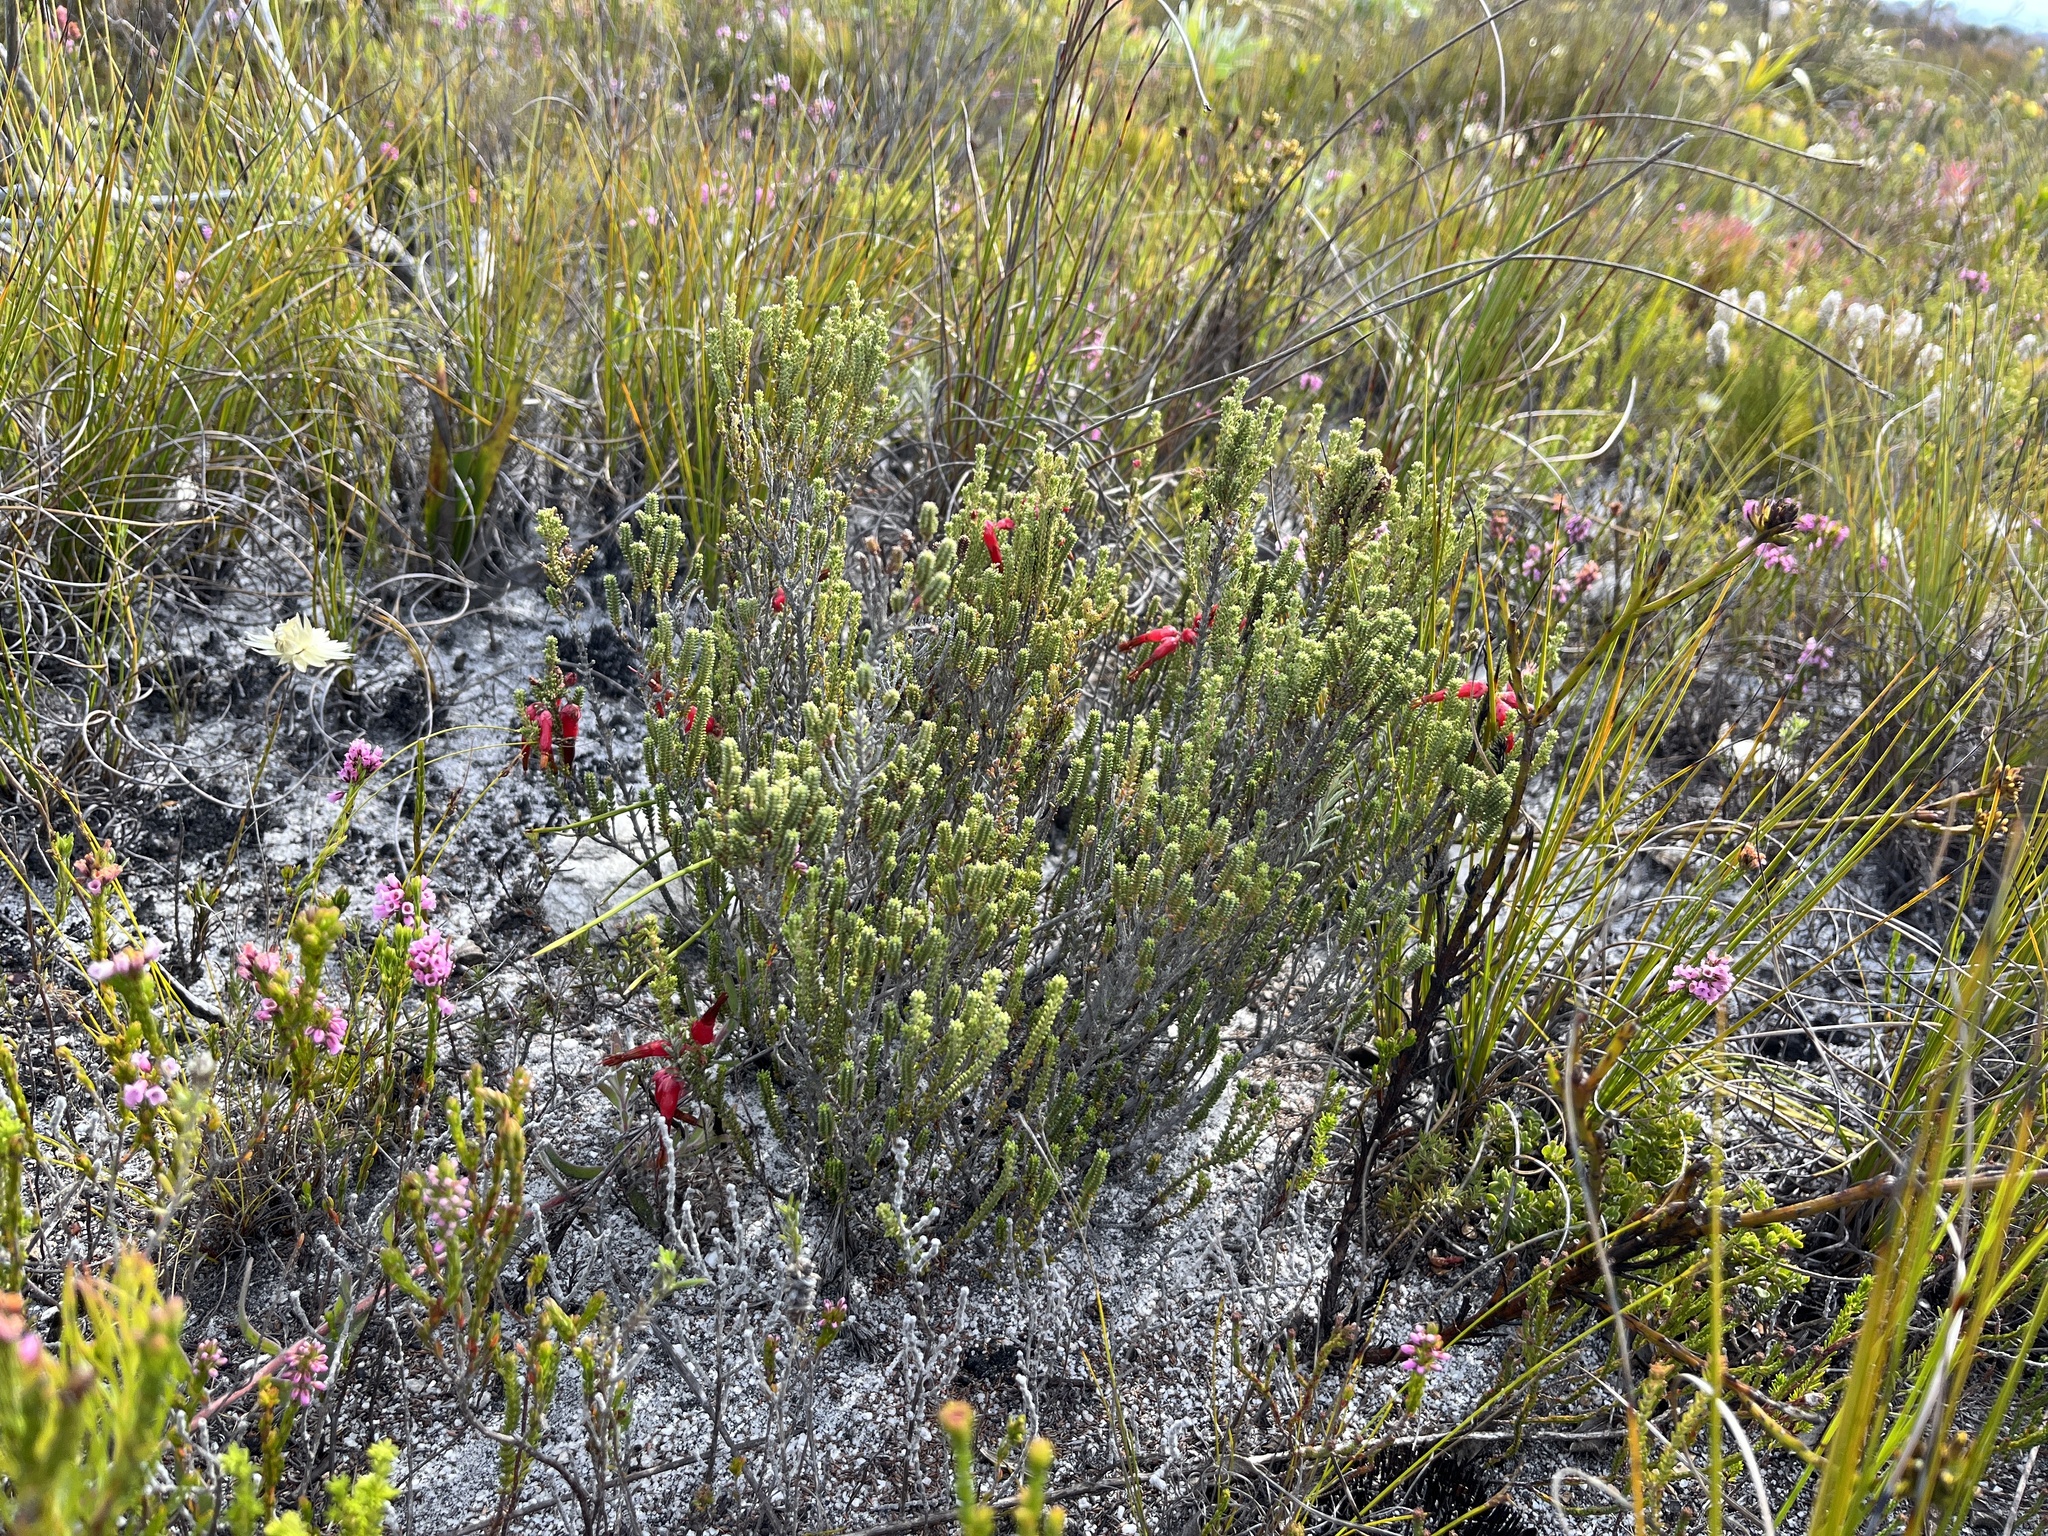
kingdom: Plantae
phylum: Tracheophyta
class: Magnoliopsida
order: Ericales
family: Ericaceae
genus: Erica
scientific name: Erica monadelphia
